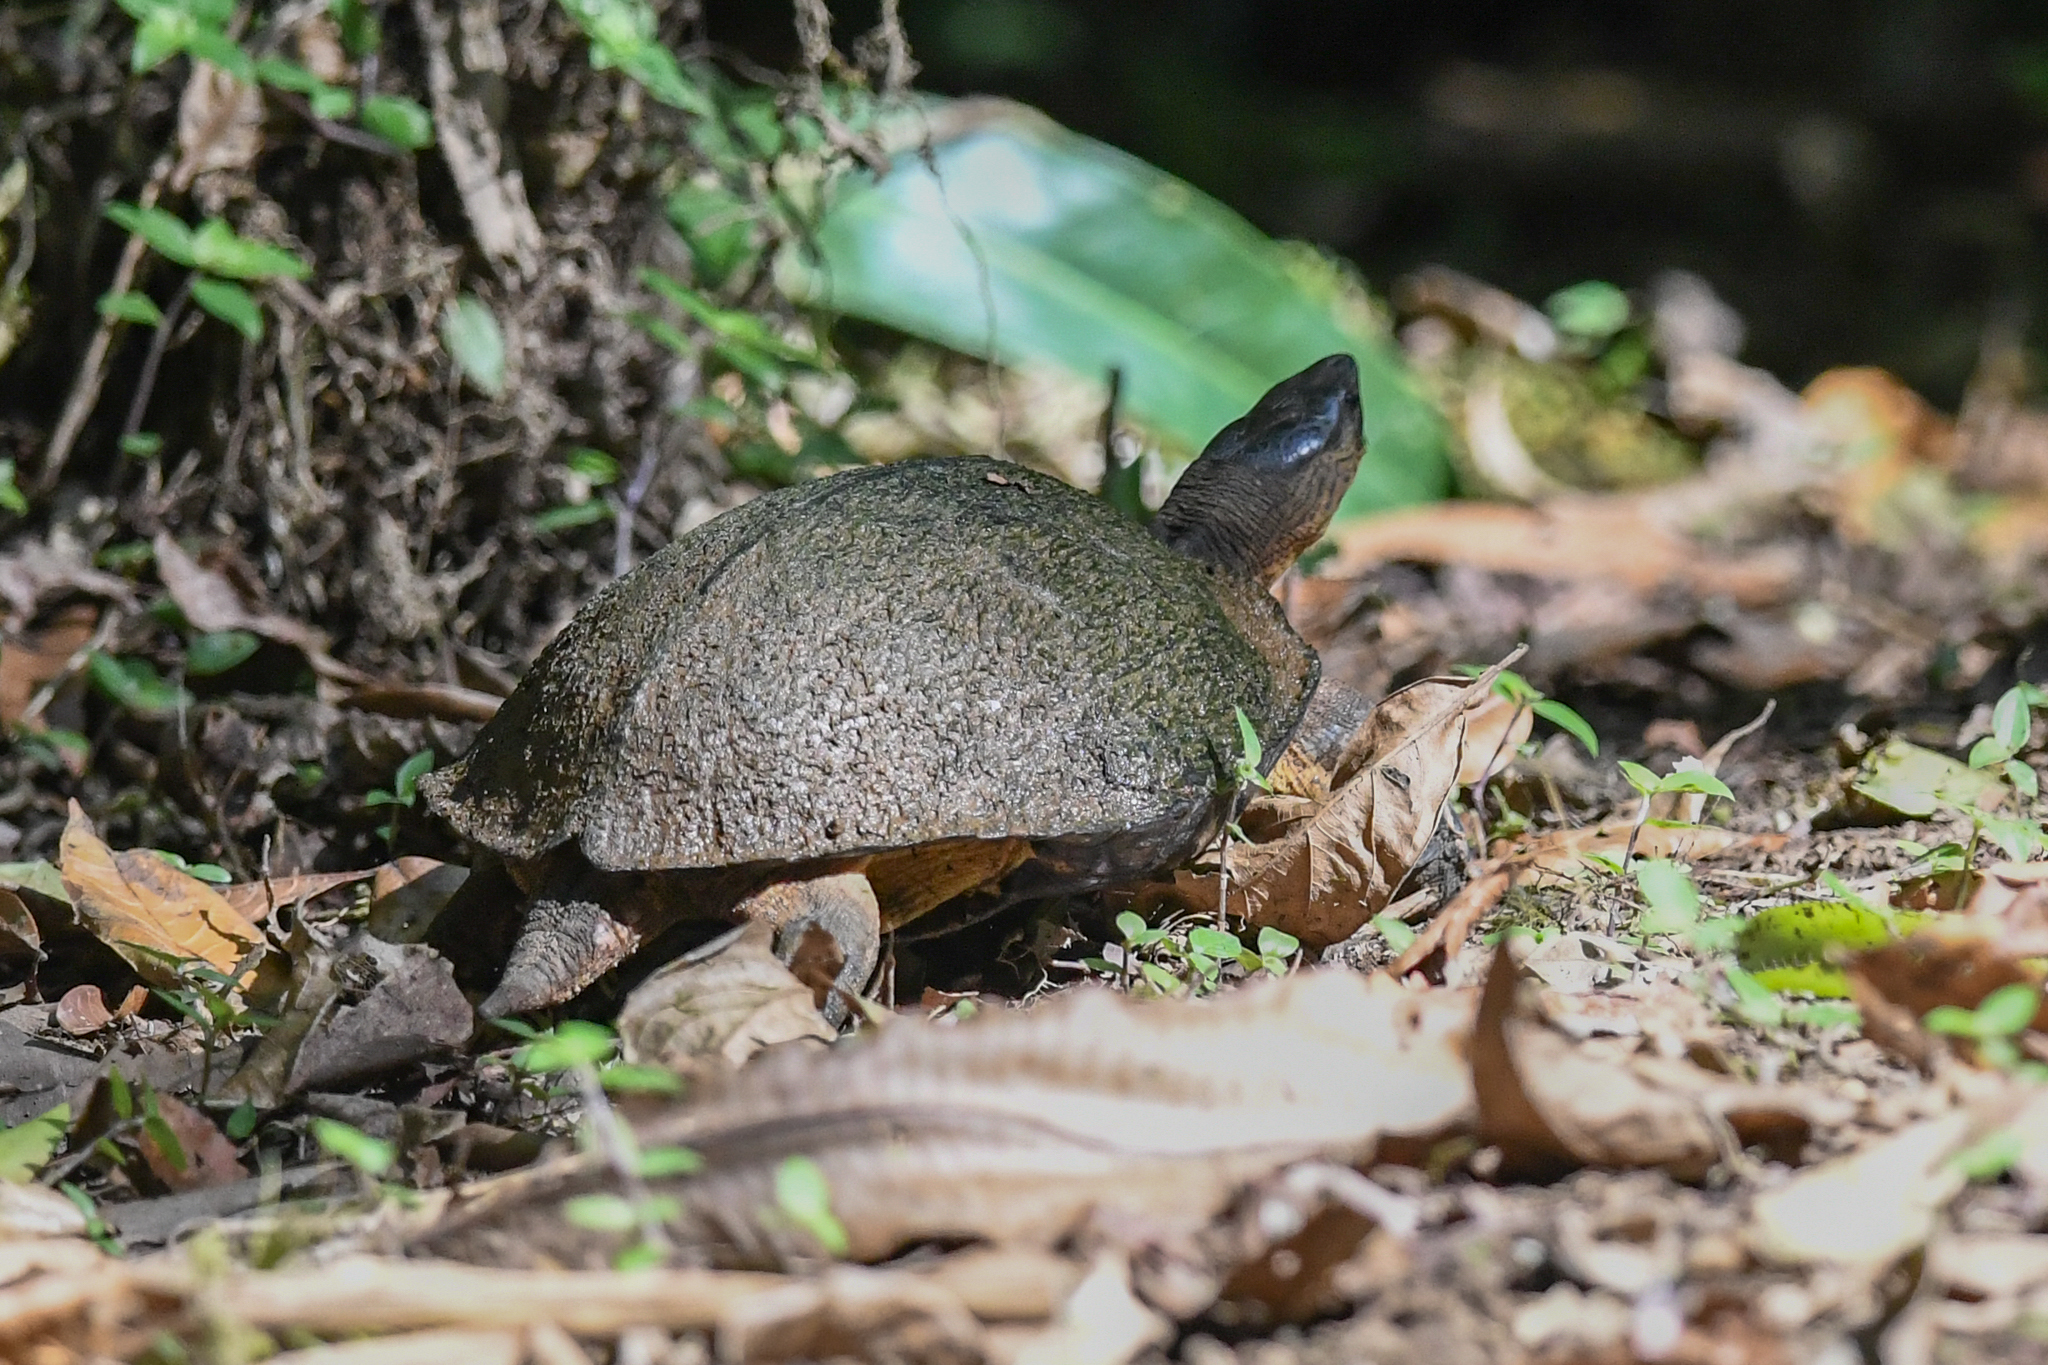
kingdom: Animalia
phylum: Chordata
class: Testudines
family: Geoemydidae
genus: Rhinoclemmys
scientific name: Rhinoclemmys funerea
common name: Black wood turtle
